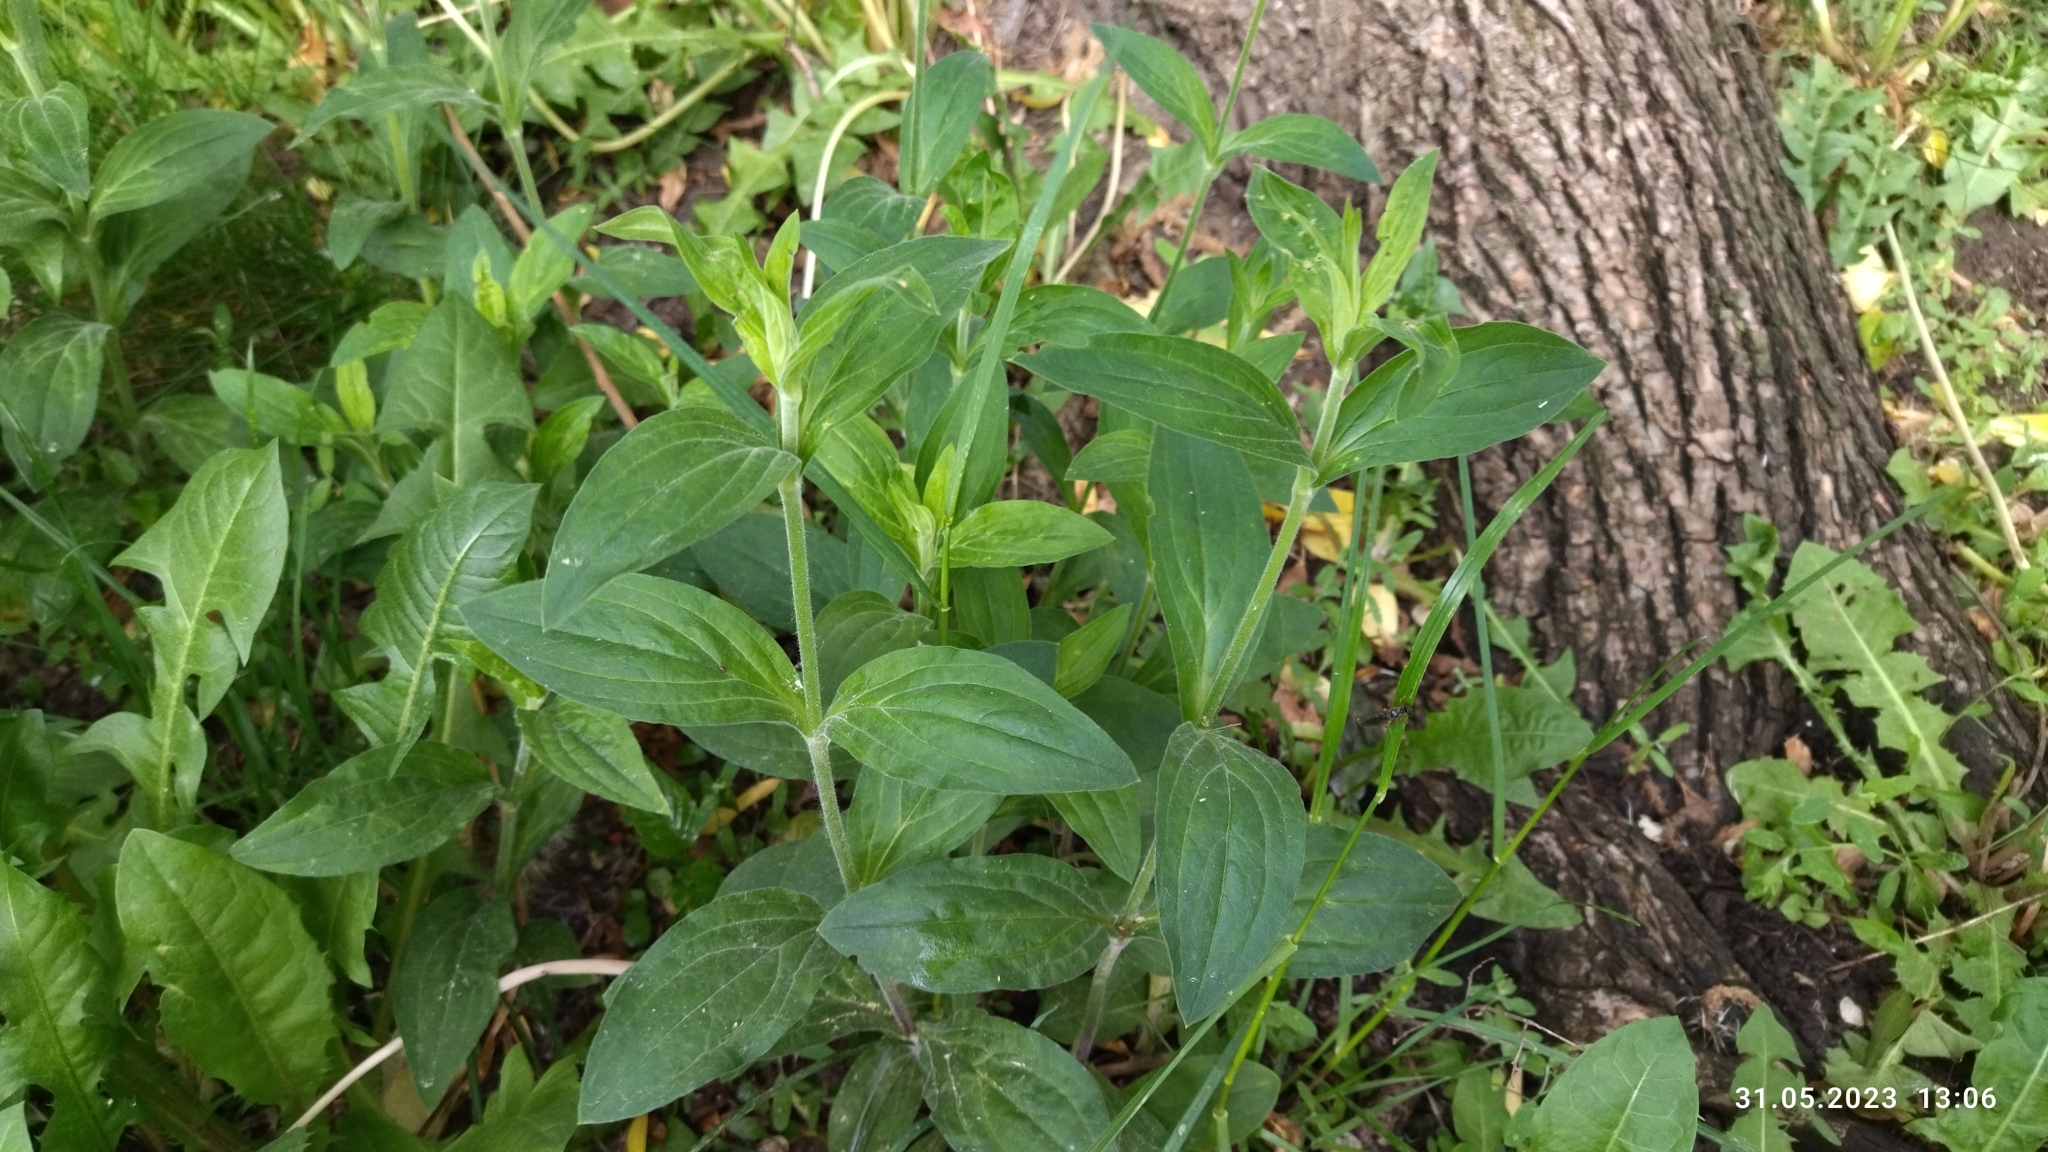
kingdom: Plantae
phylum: Tracheophyta
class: Magnoliopsida
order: Caryophyllales
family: Caryophyllaceae
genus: Silene
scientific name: Silene latifolia
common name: White campion
